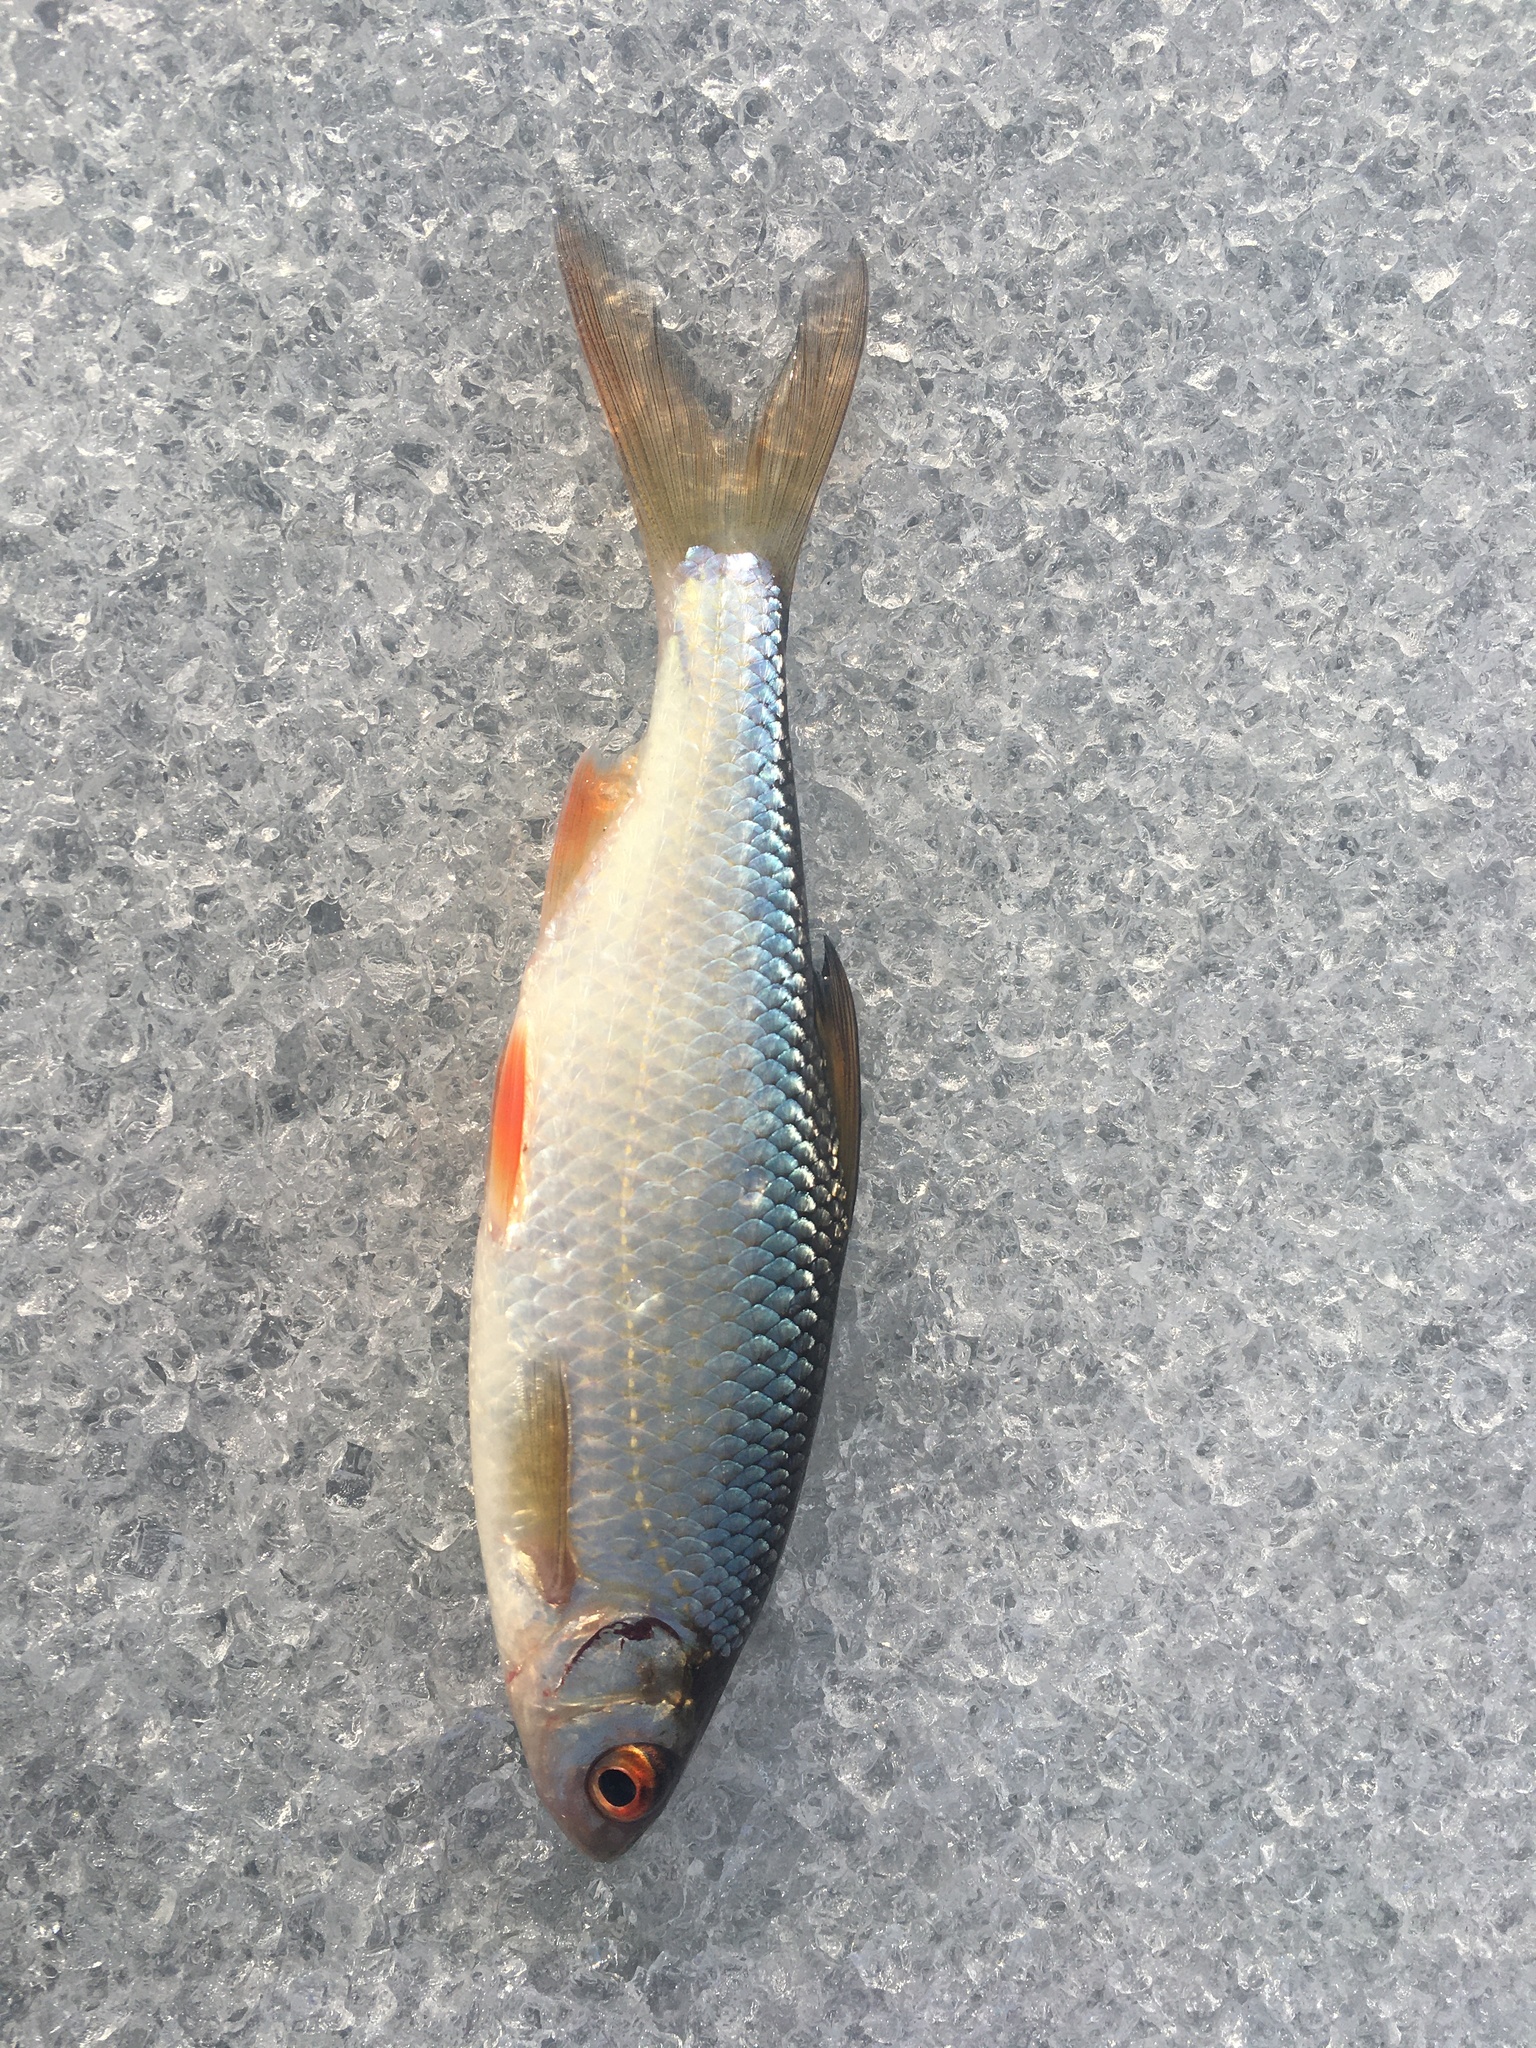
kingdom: Animalia
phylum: Chordata
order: Cypriniformes
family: Cyprinidae
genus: Rutilus
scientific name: Rutilus rutilus
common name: Roach
